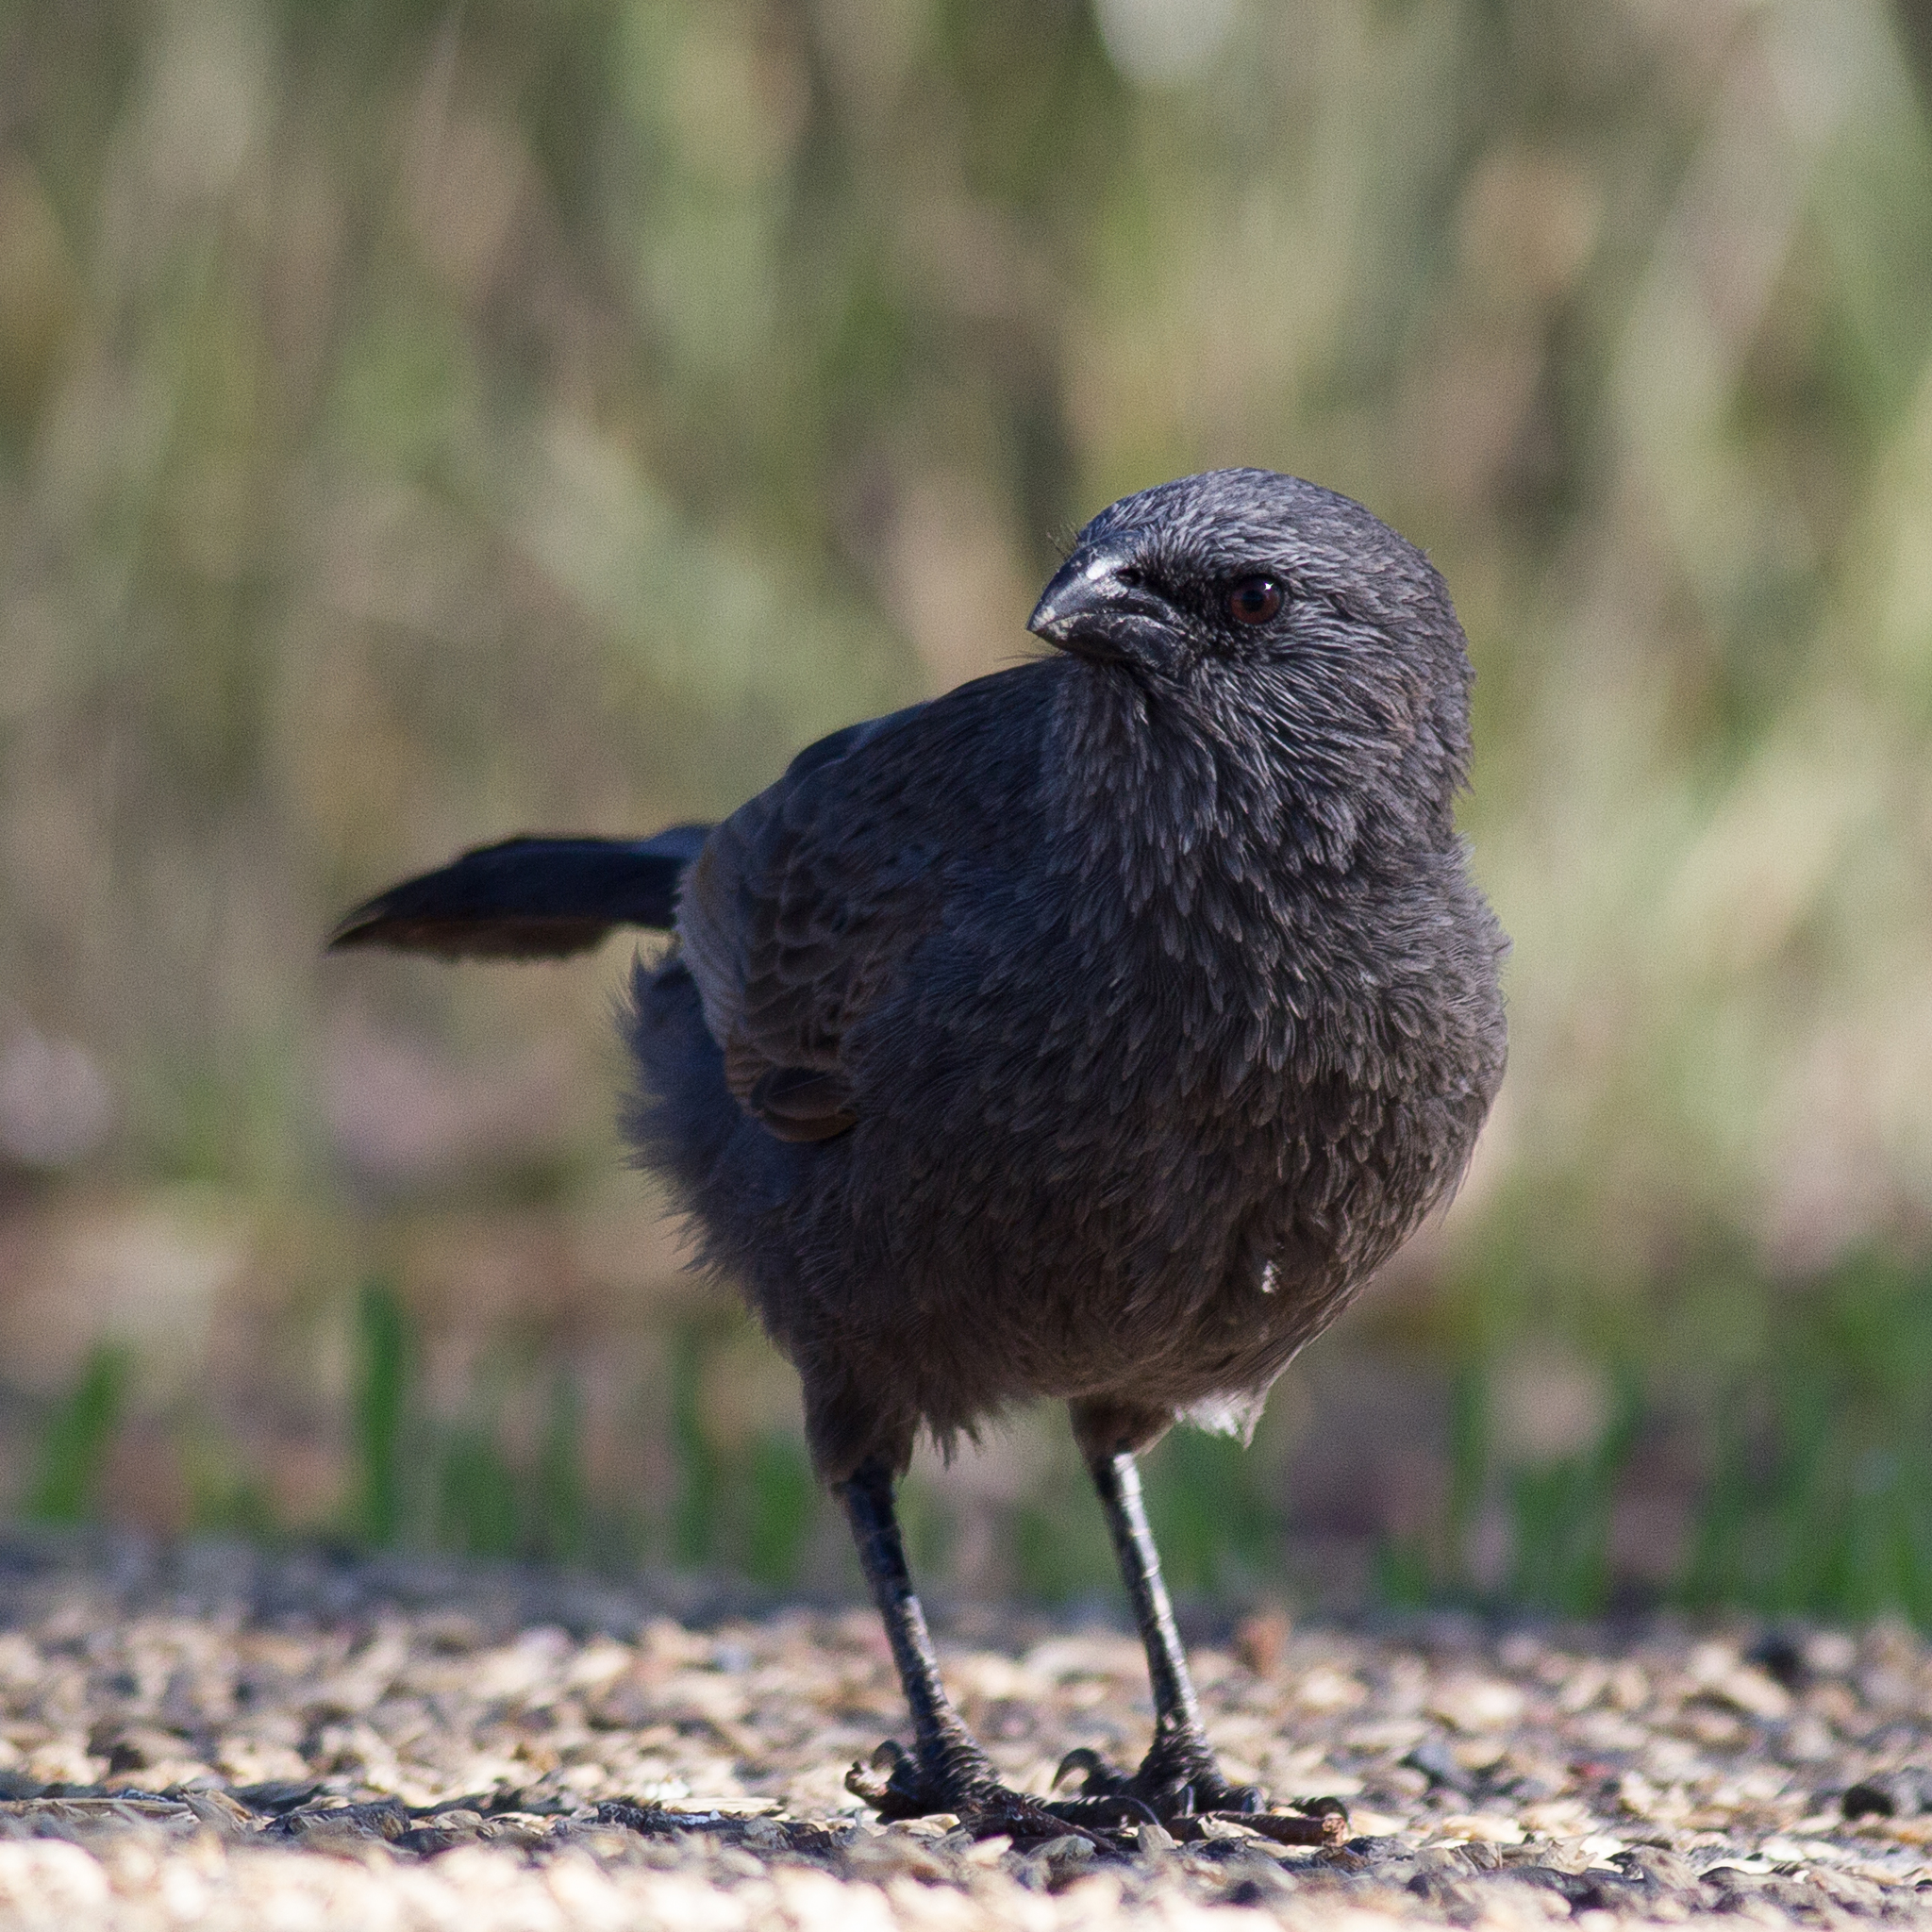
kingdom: Animalia
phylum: Chordata
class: Aves
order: Passeriformes
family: Corcoracidae
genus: Struthidea
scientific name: Struthidea cinerea
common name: Apostlebird
